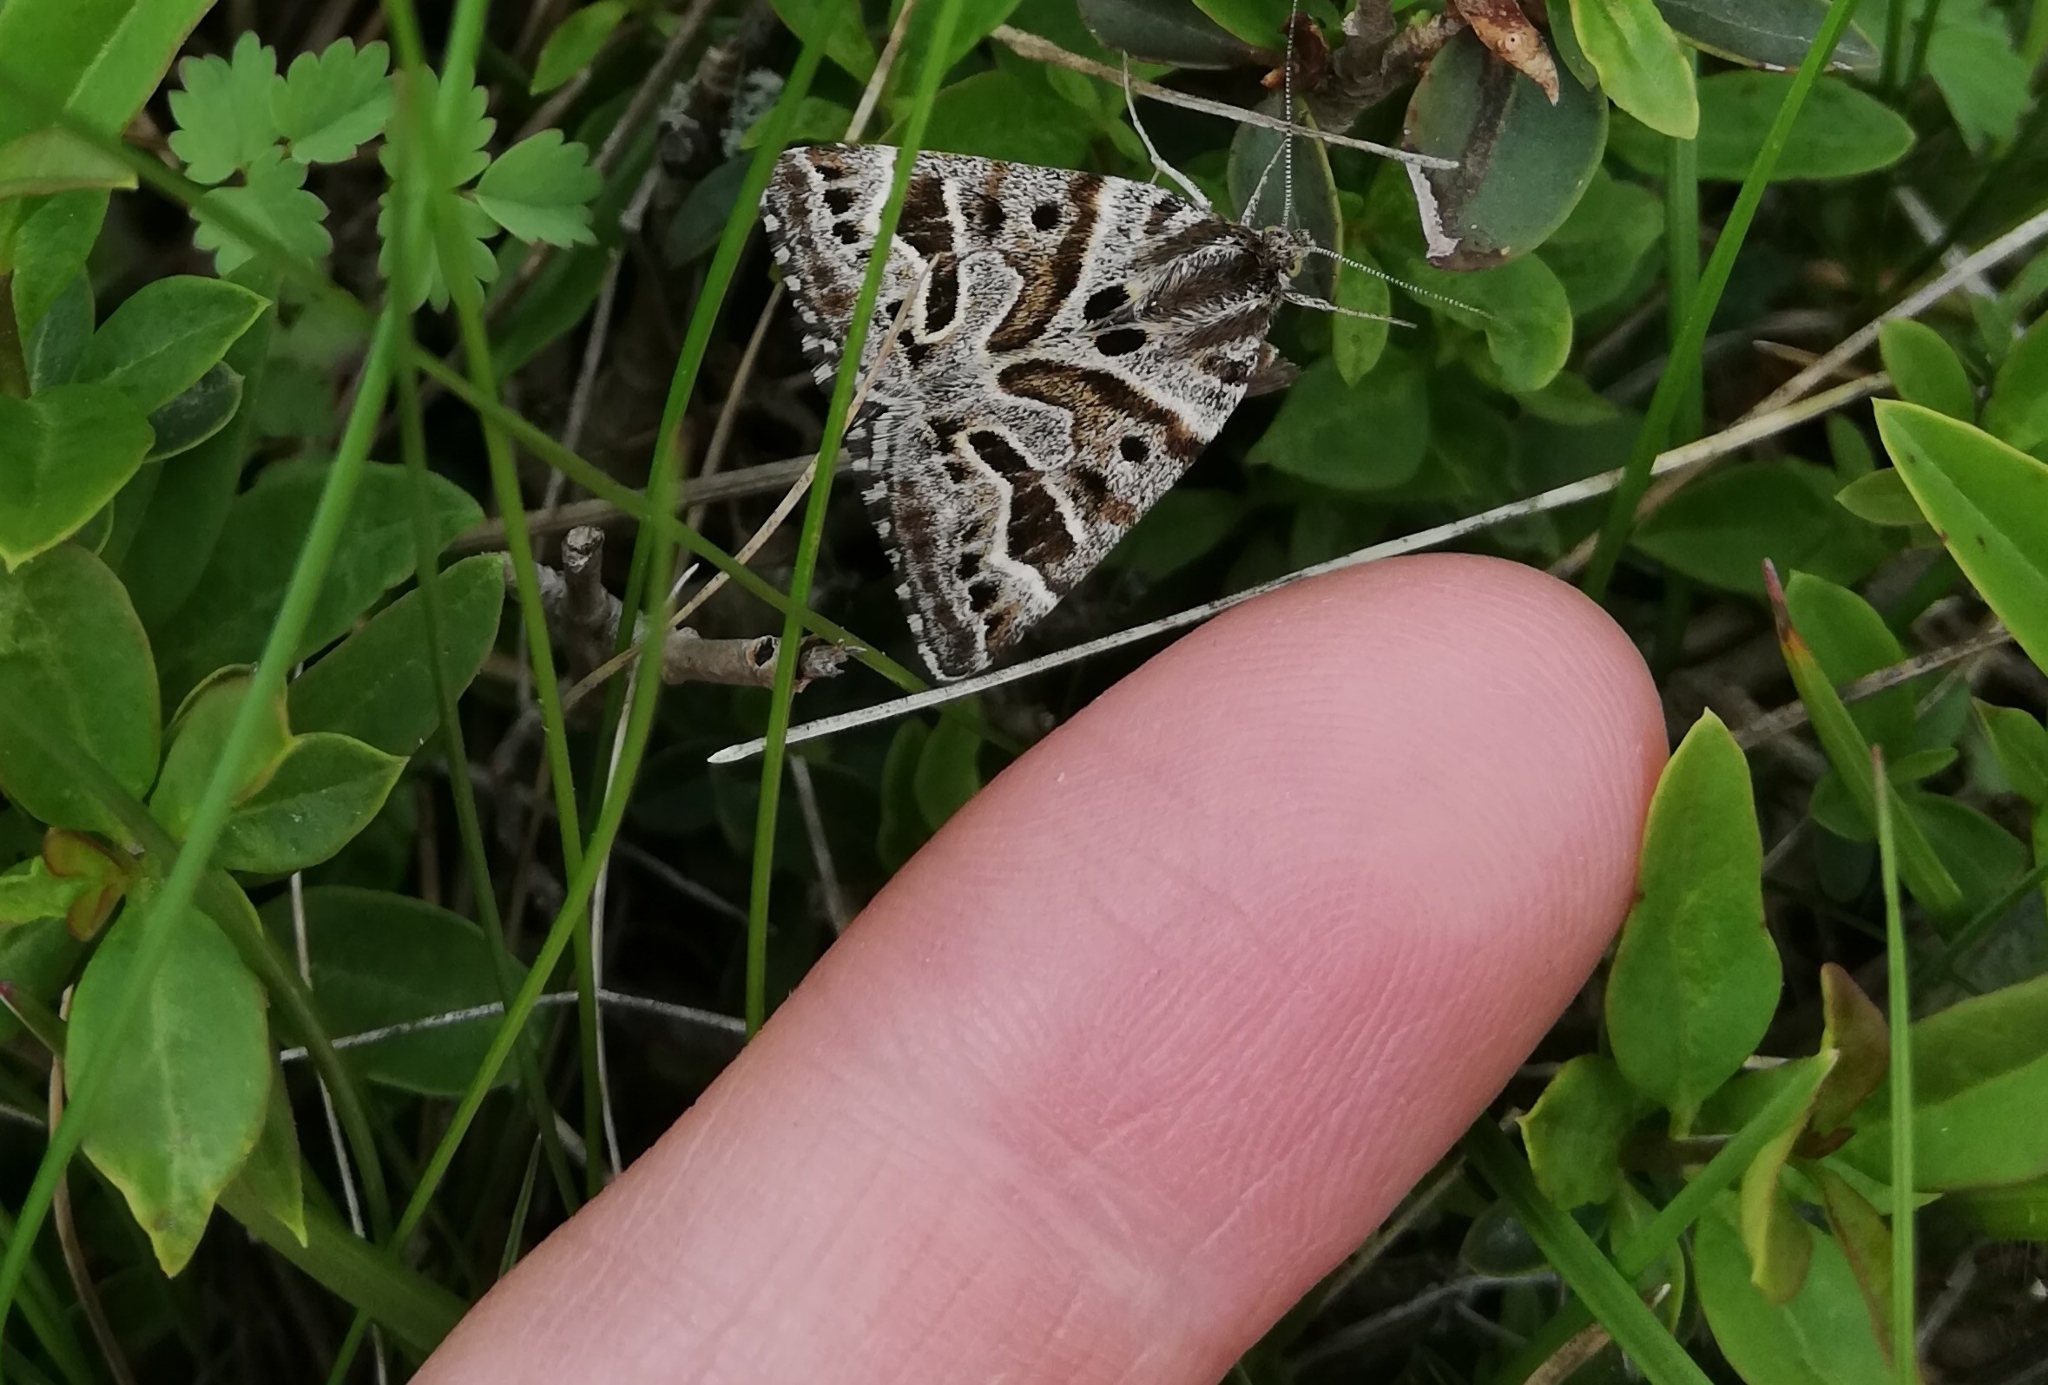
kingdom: Animalia
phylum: Arthropoda
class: Insecta
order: Lepidoptera
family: Erebidae
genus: Callistege
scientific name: Callistege mi
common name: Mother shipton
